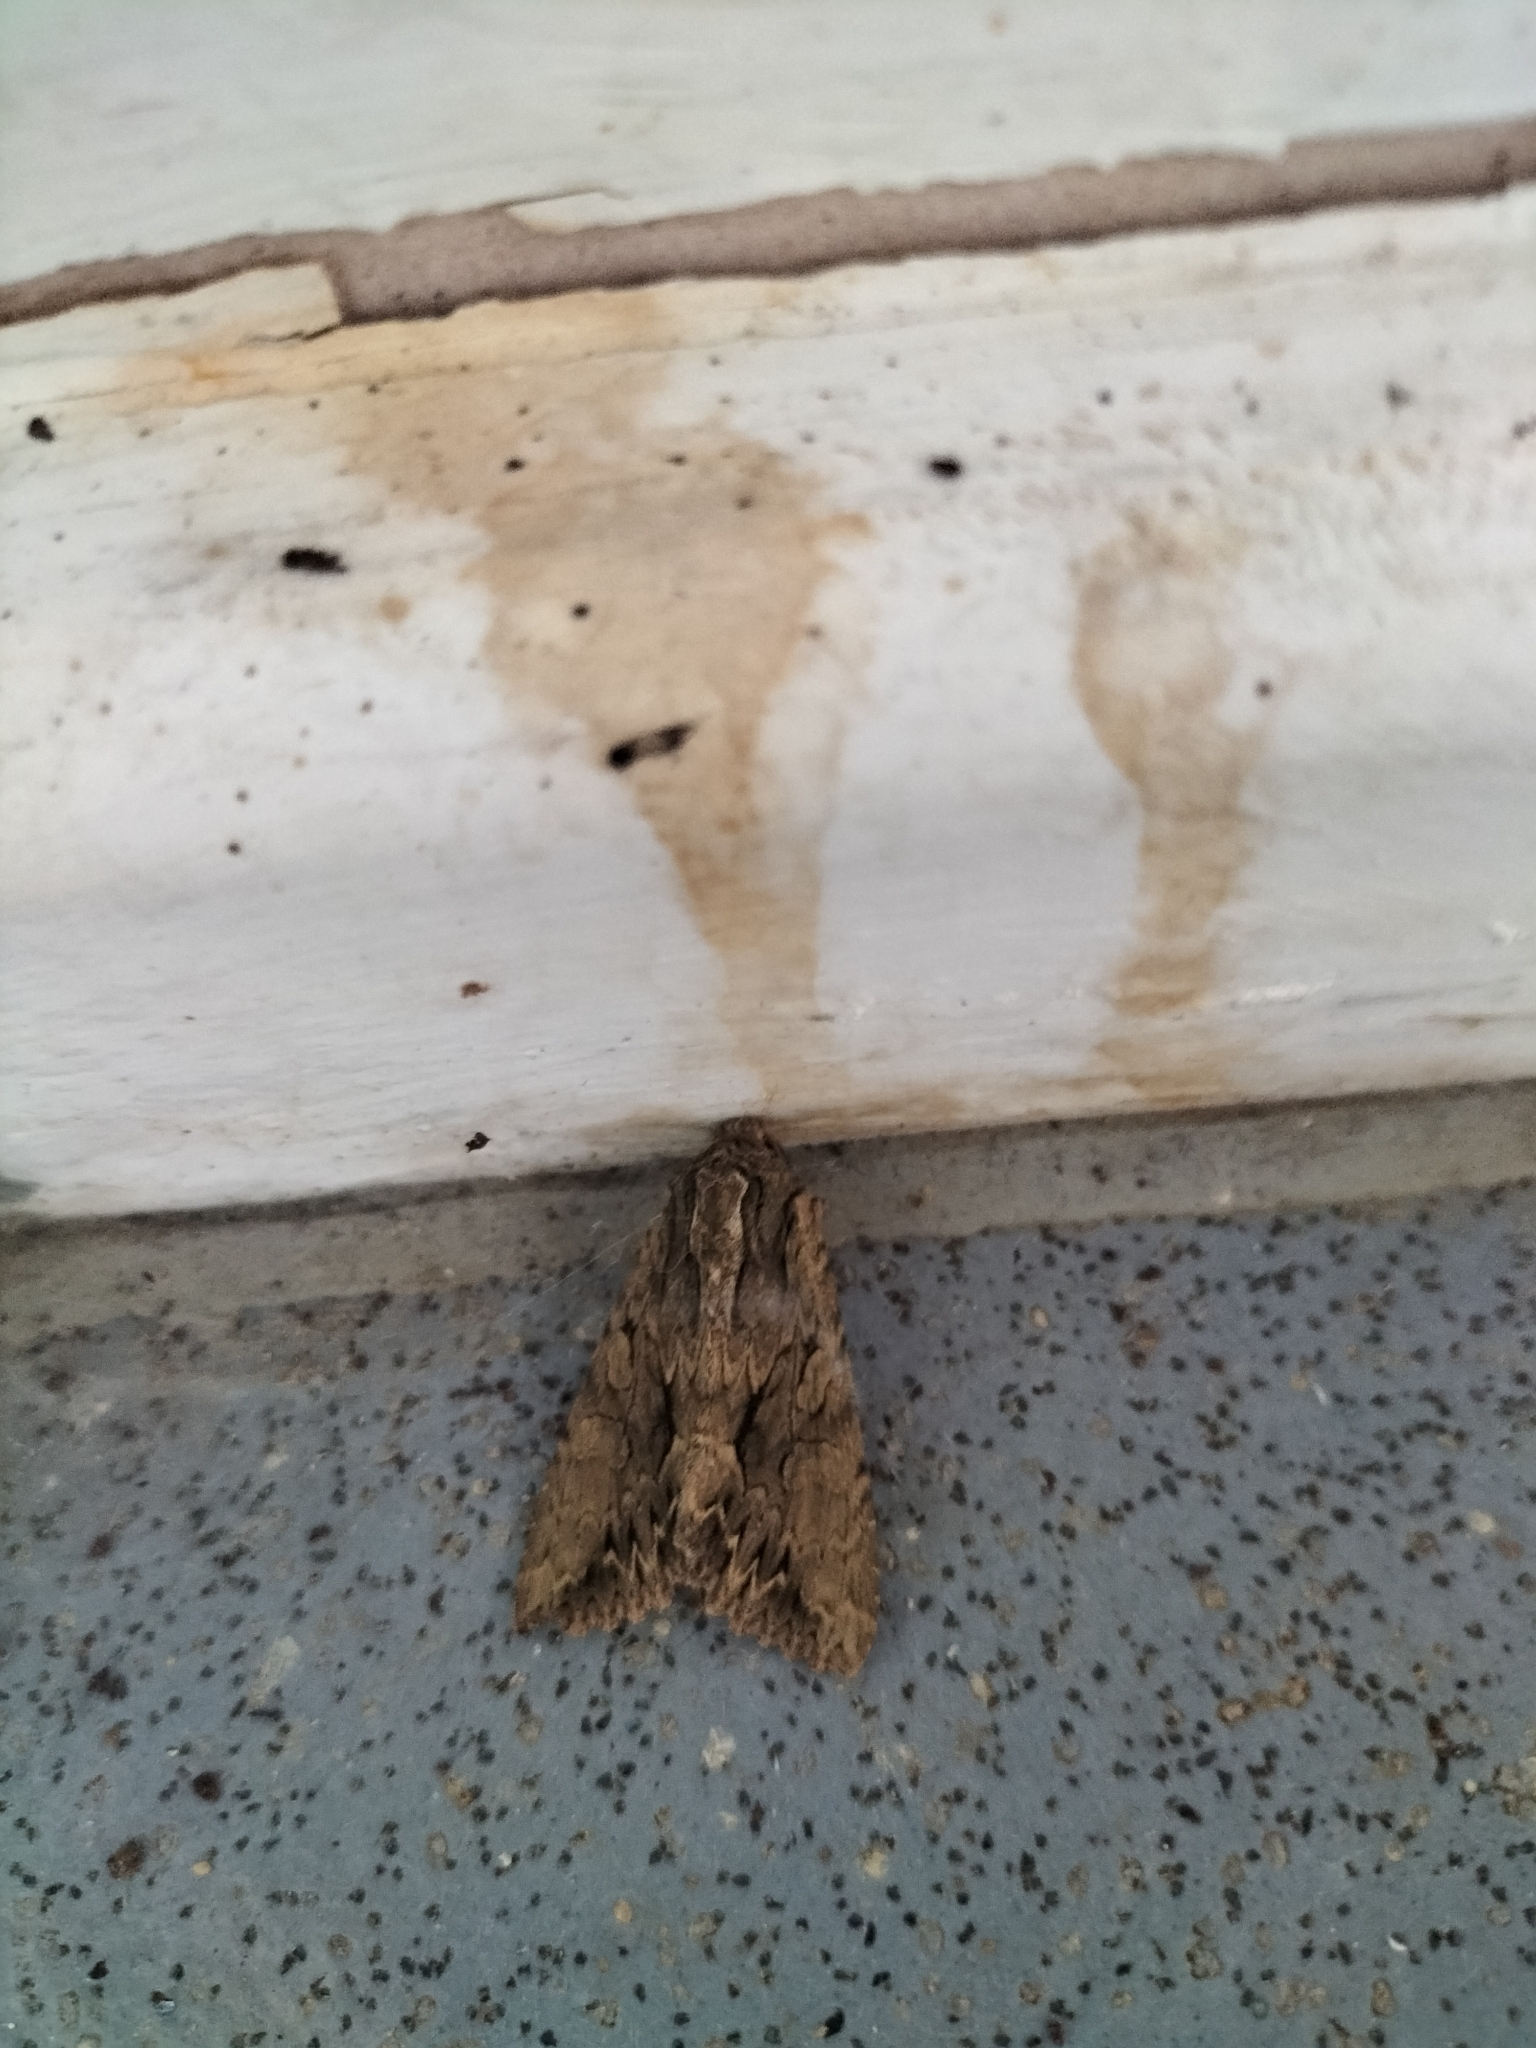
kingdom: Animalia
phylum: Arthropoda
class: Insecta
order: Lepidoptera
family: Noctuidae
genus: Apamea
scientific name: Apamea monoglypha
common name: Dark arches
